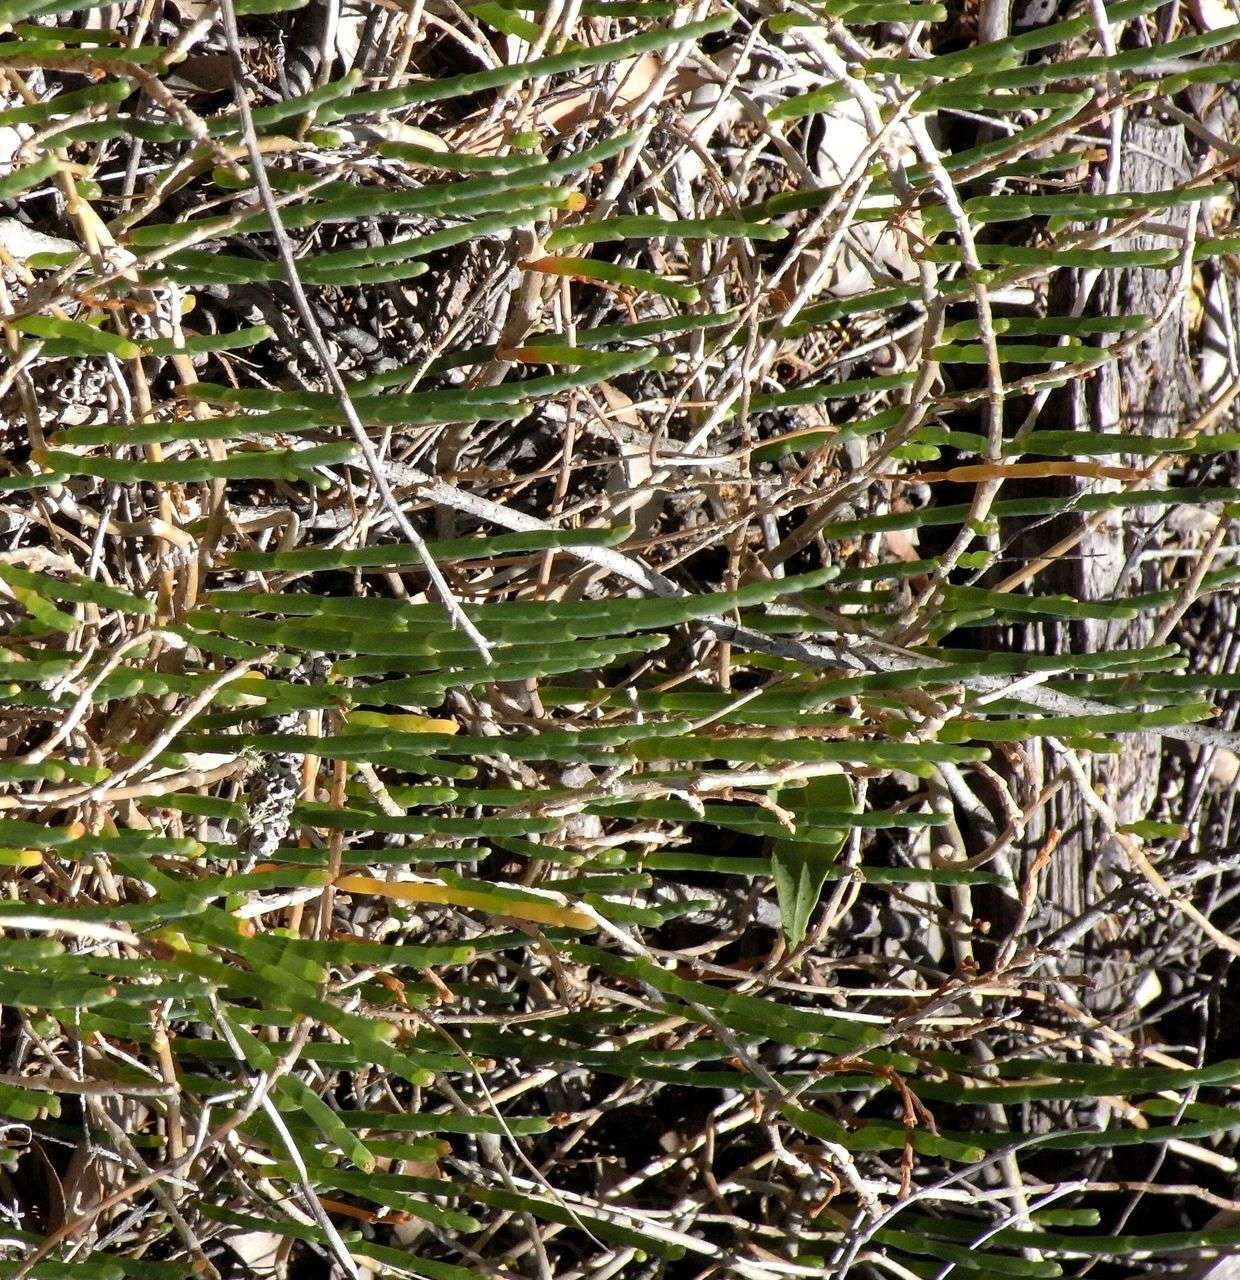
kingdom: Plantae
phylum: Tracheophyta
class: Magnoliopsida
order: Caryophyllales
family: Amaranthaceae
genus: Salicornia
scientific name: Salicornia quinqueflora
